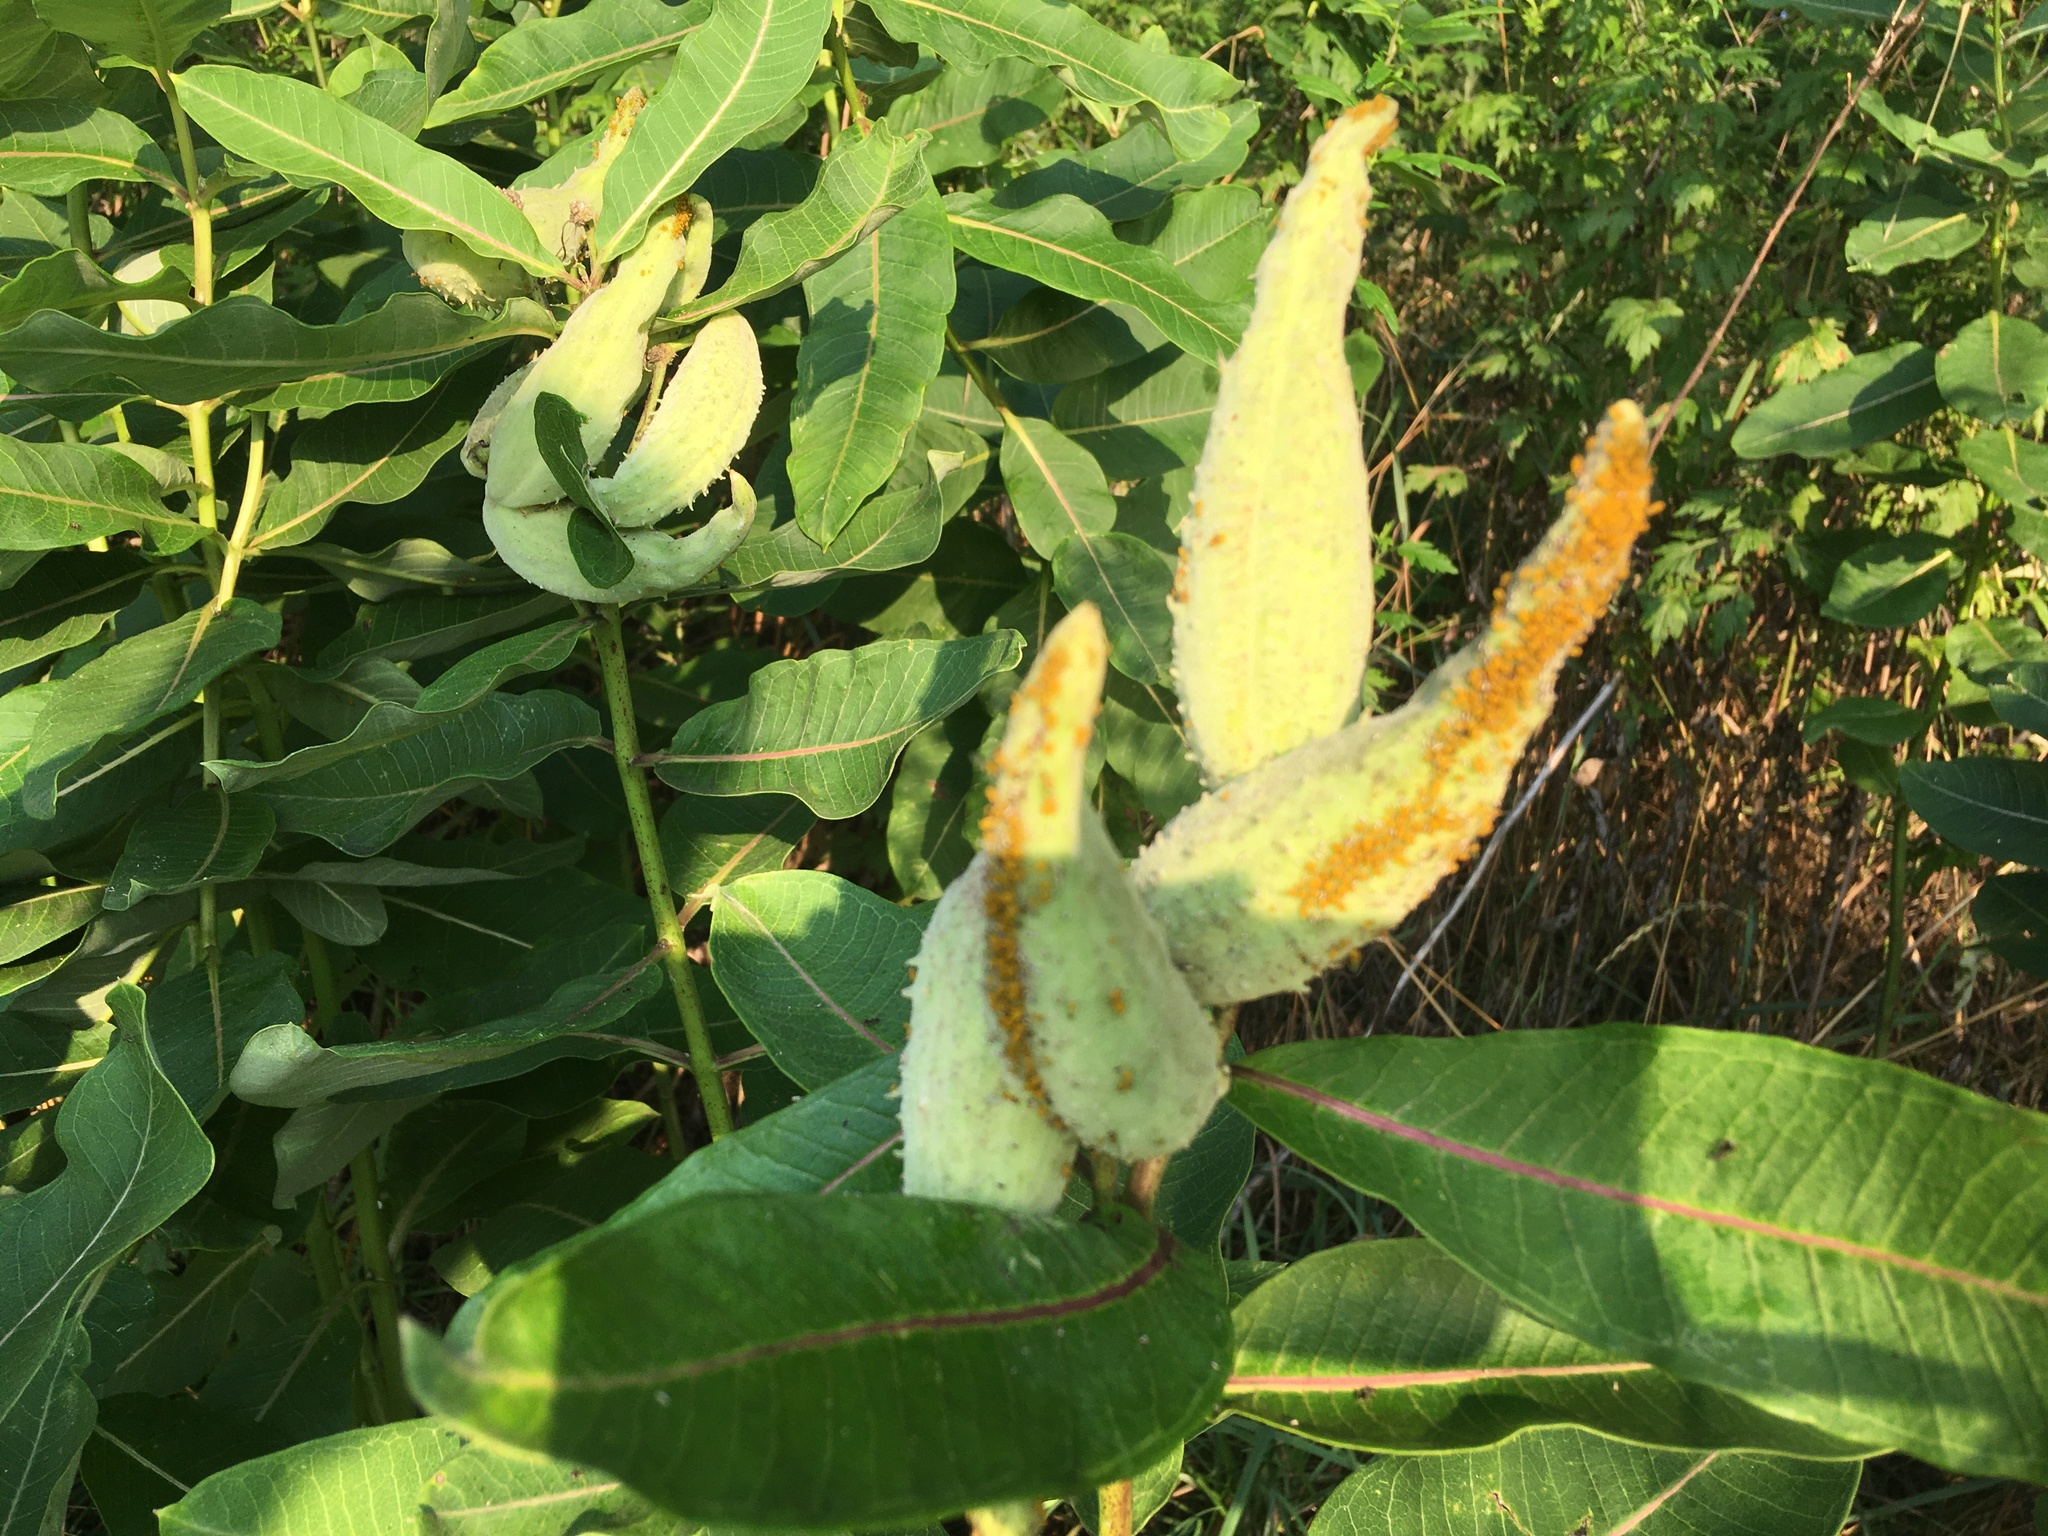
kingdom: Plantae
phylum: Tracheophyta
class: Magnoliopsida
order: Gentianales
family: Apocynaceae
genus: Asclepias
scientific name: Asclepias syriaca
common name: Common milkweed
